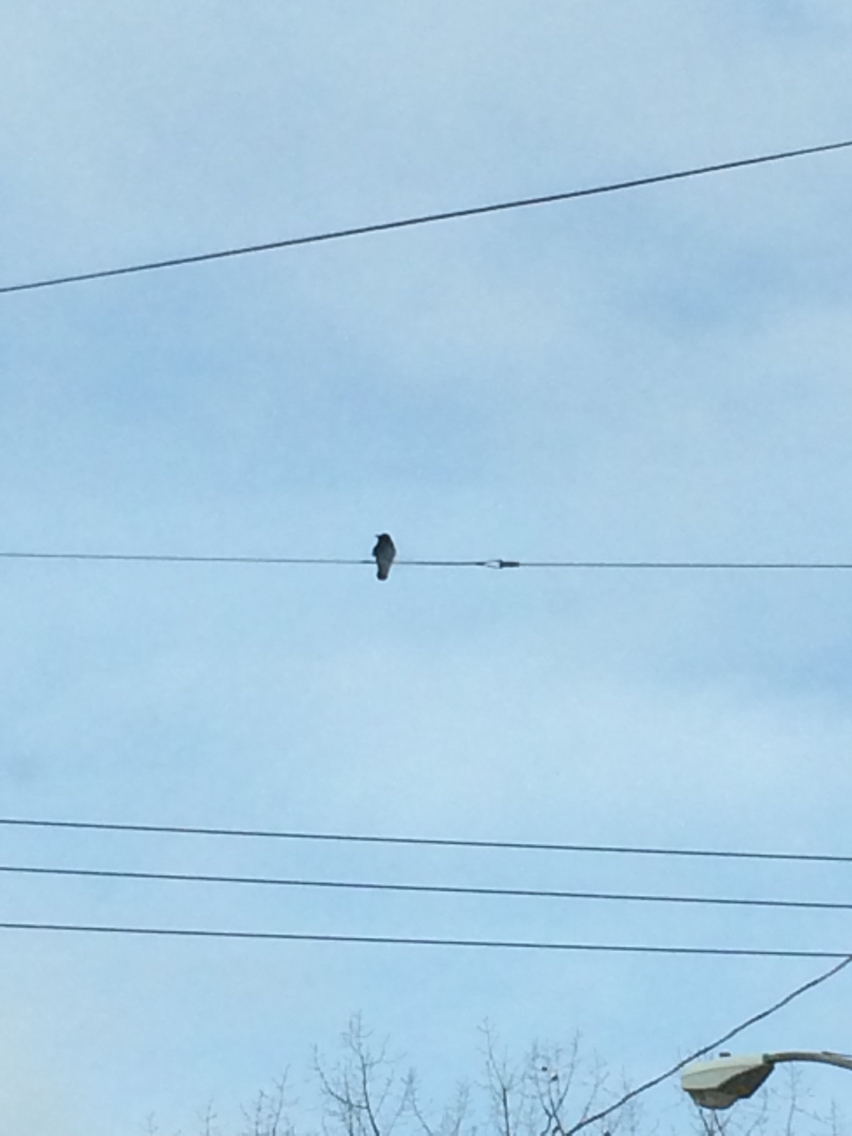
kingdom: Animalia
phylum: Chordata
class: Aves
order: Passeriformes
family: Corvidae
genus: Corvus
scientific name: Corvus
